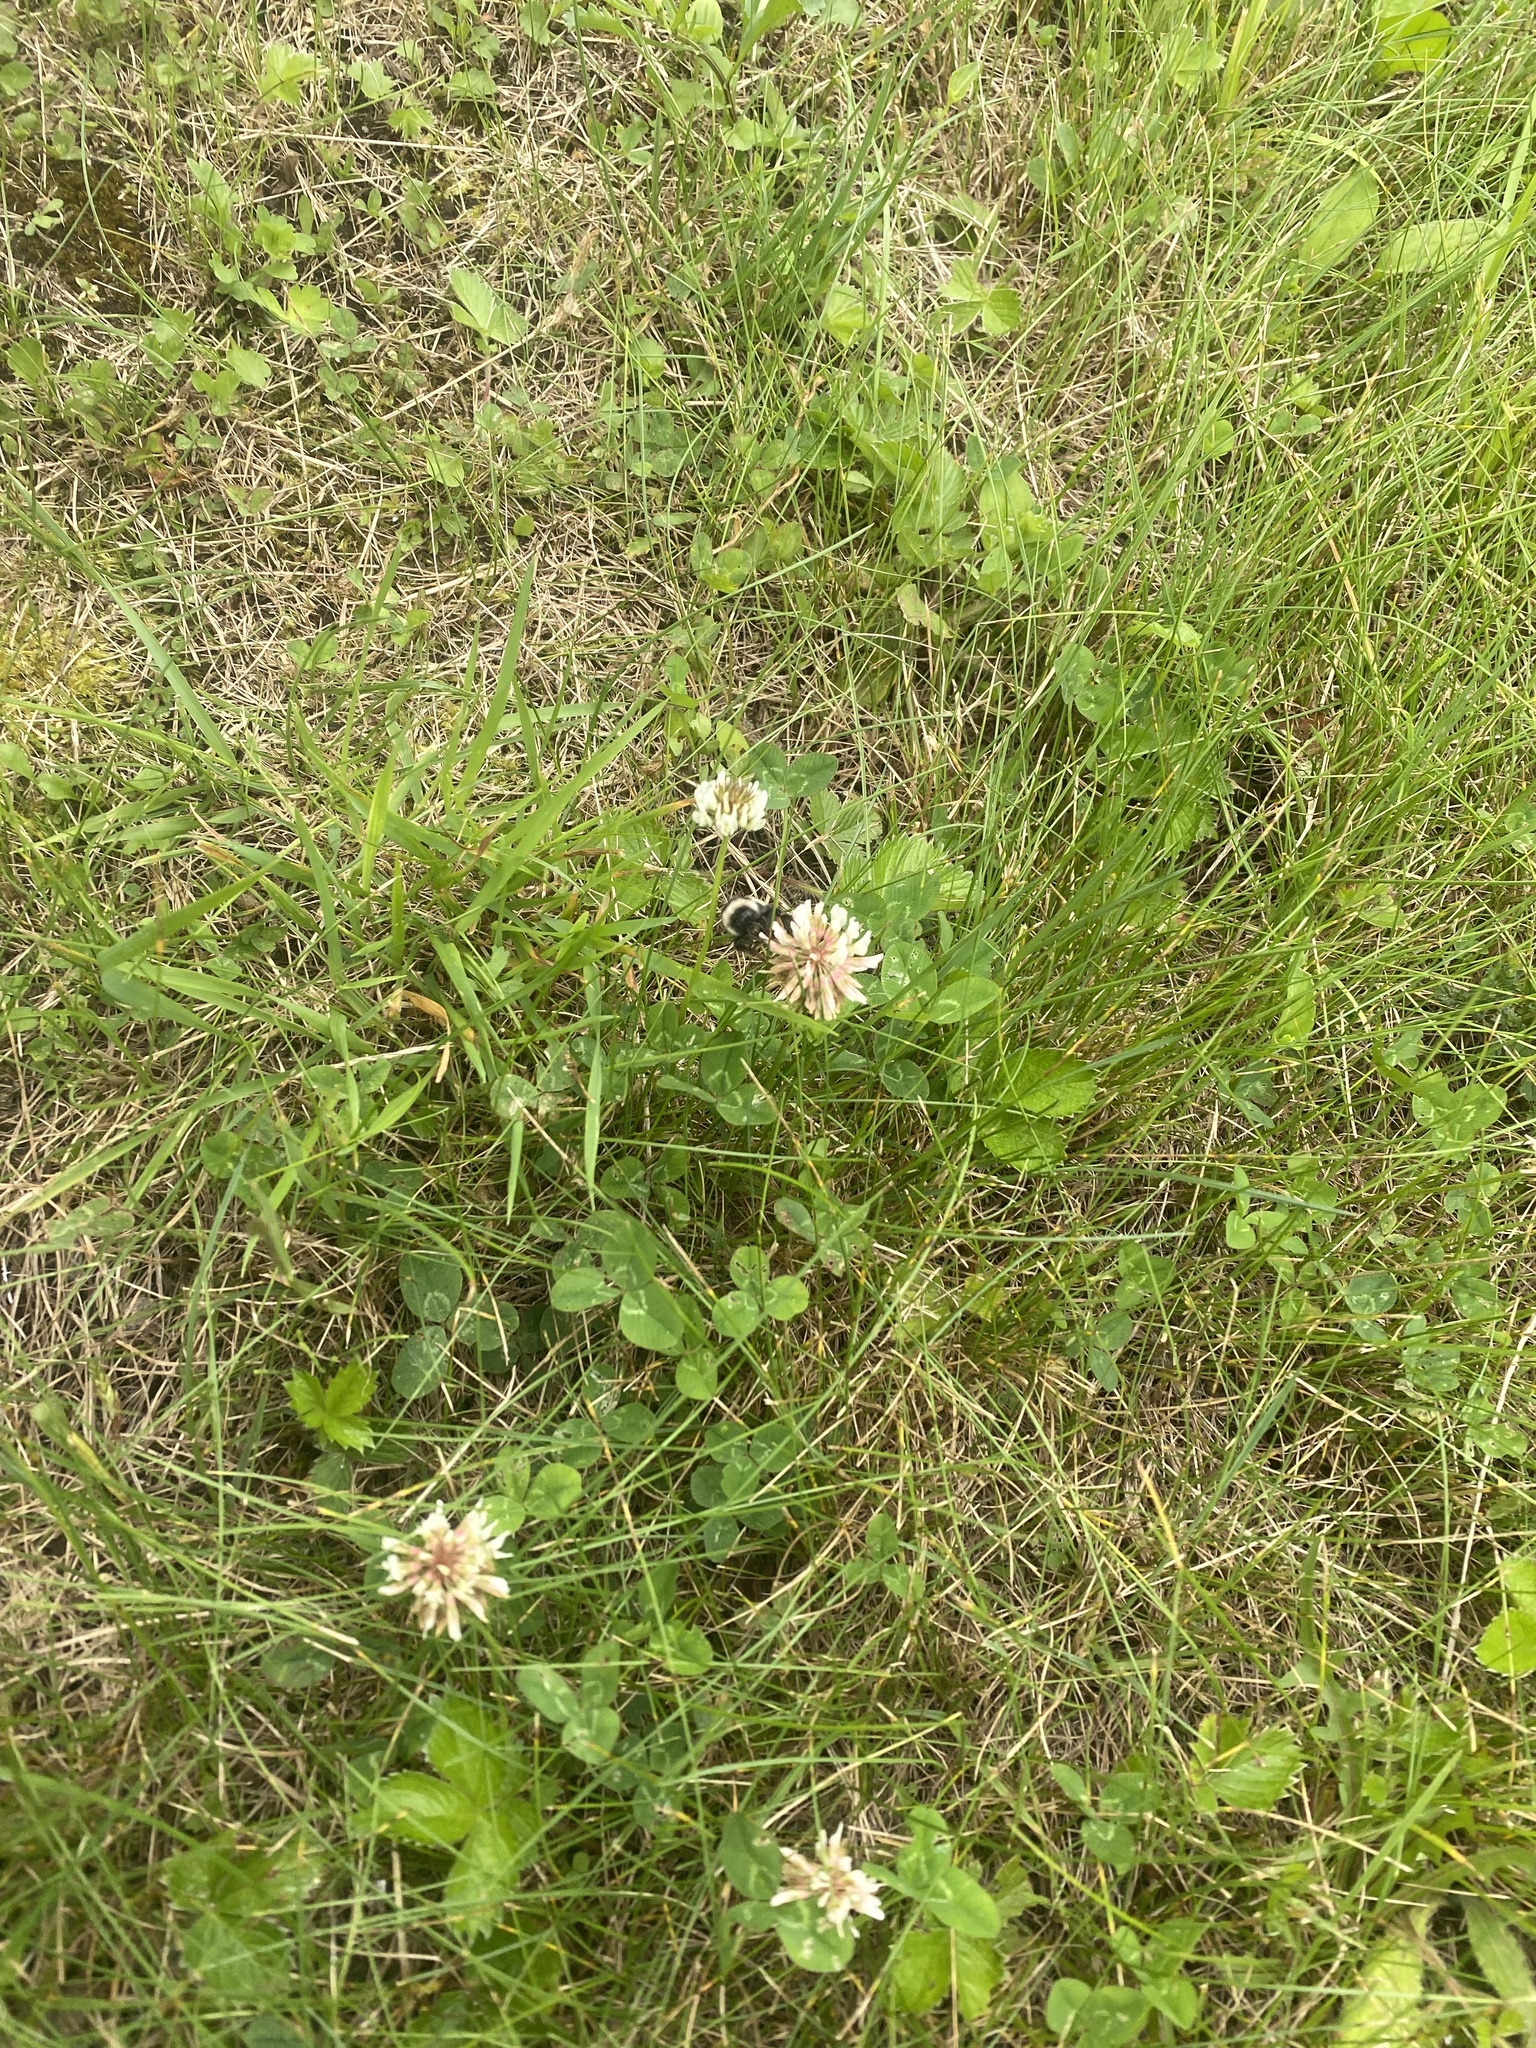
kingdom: Plantae
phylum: Tracheophyta
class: Magnoliopsida
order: Fabales
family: Fabaceae
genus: Trifolium
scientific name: Trifolium repens
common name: White clover
